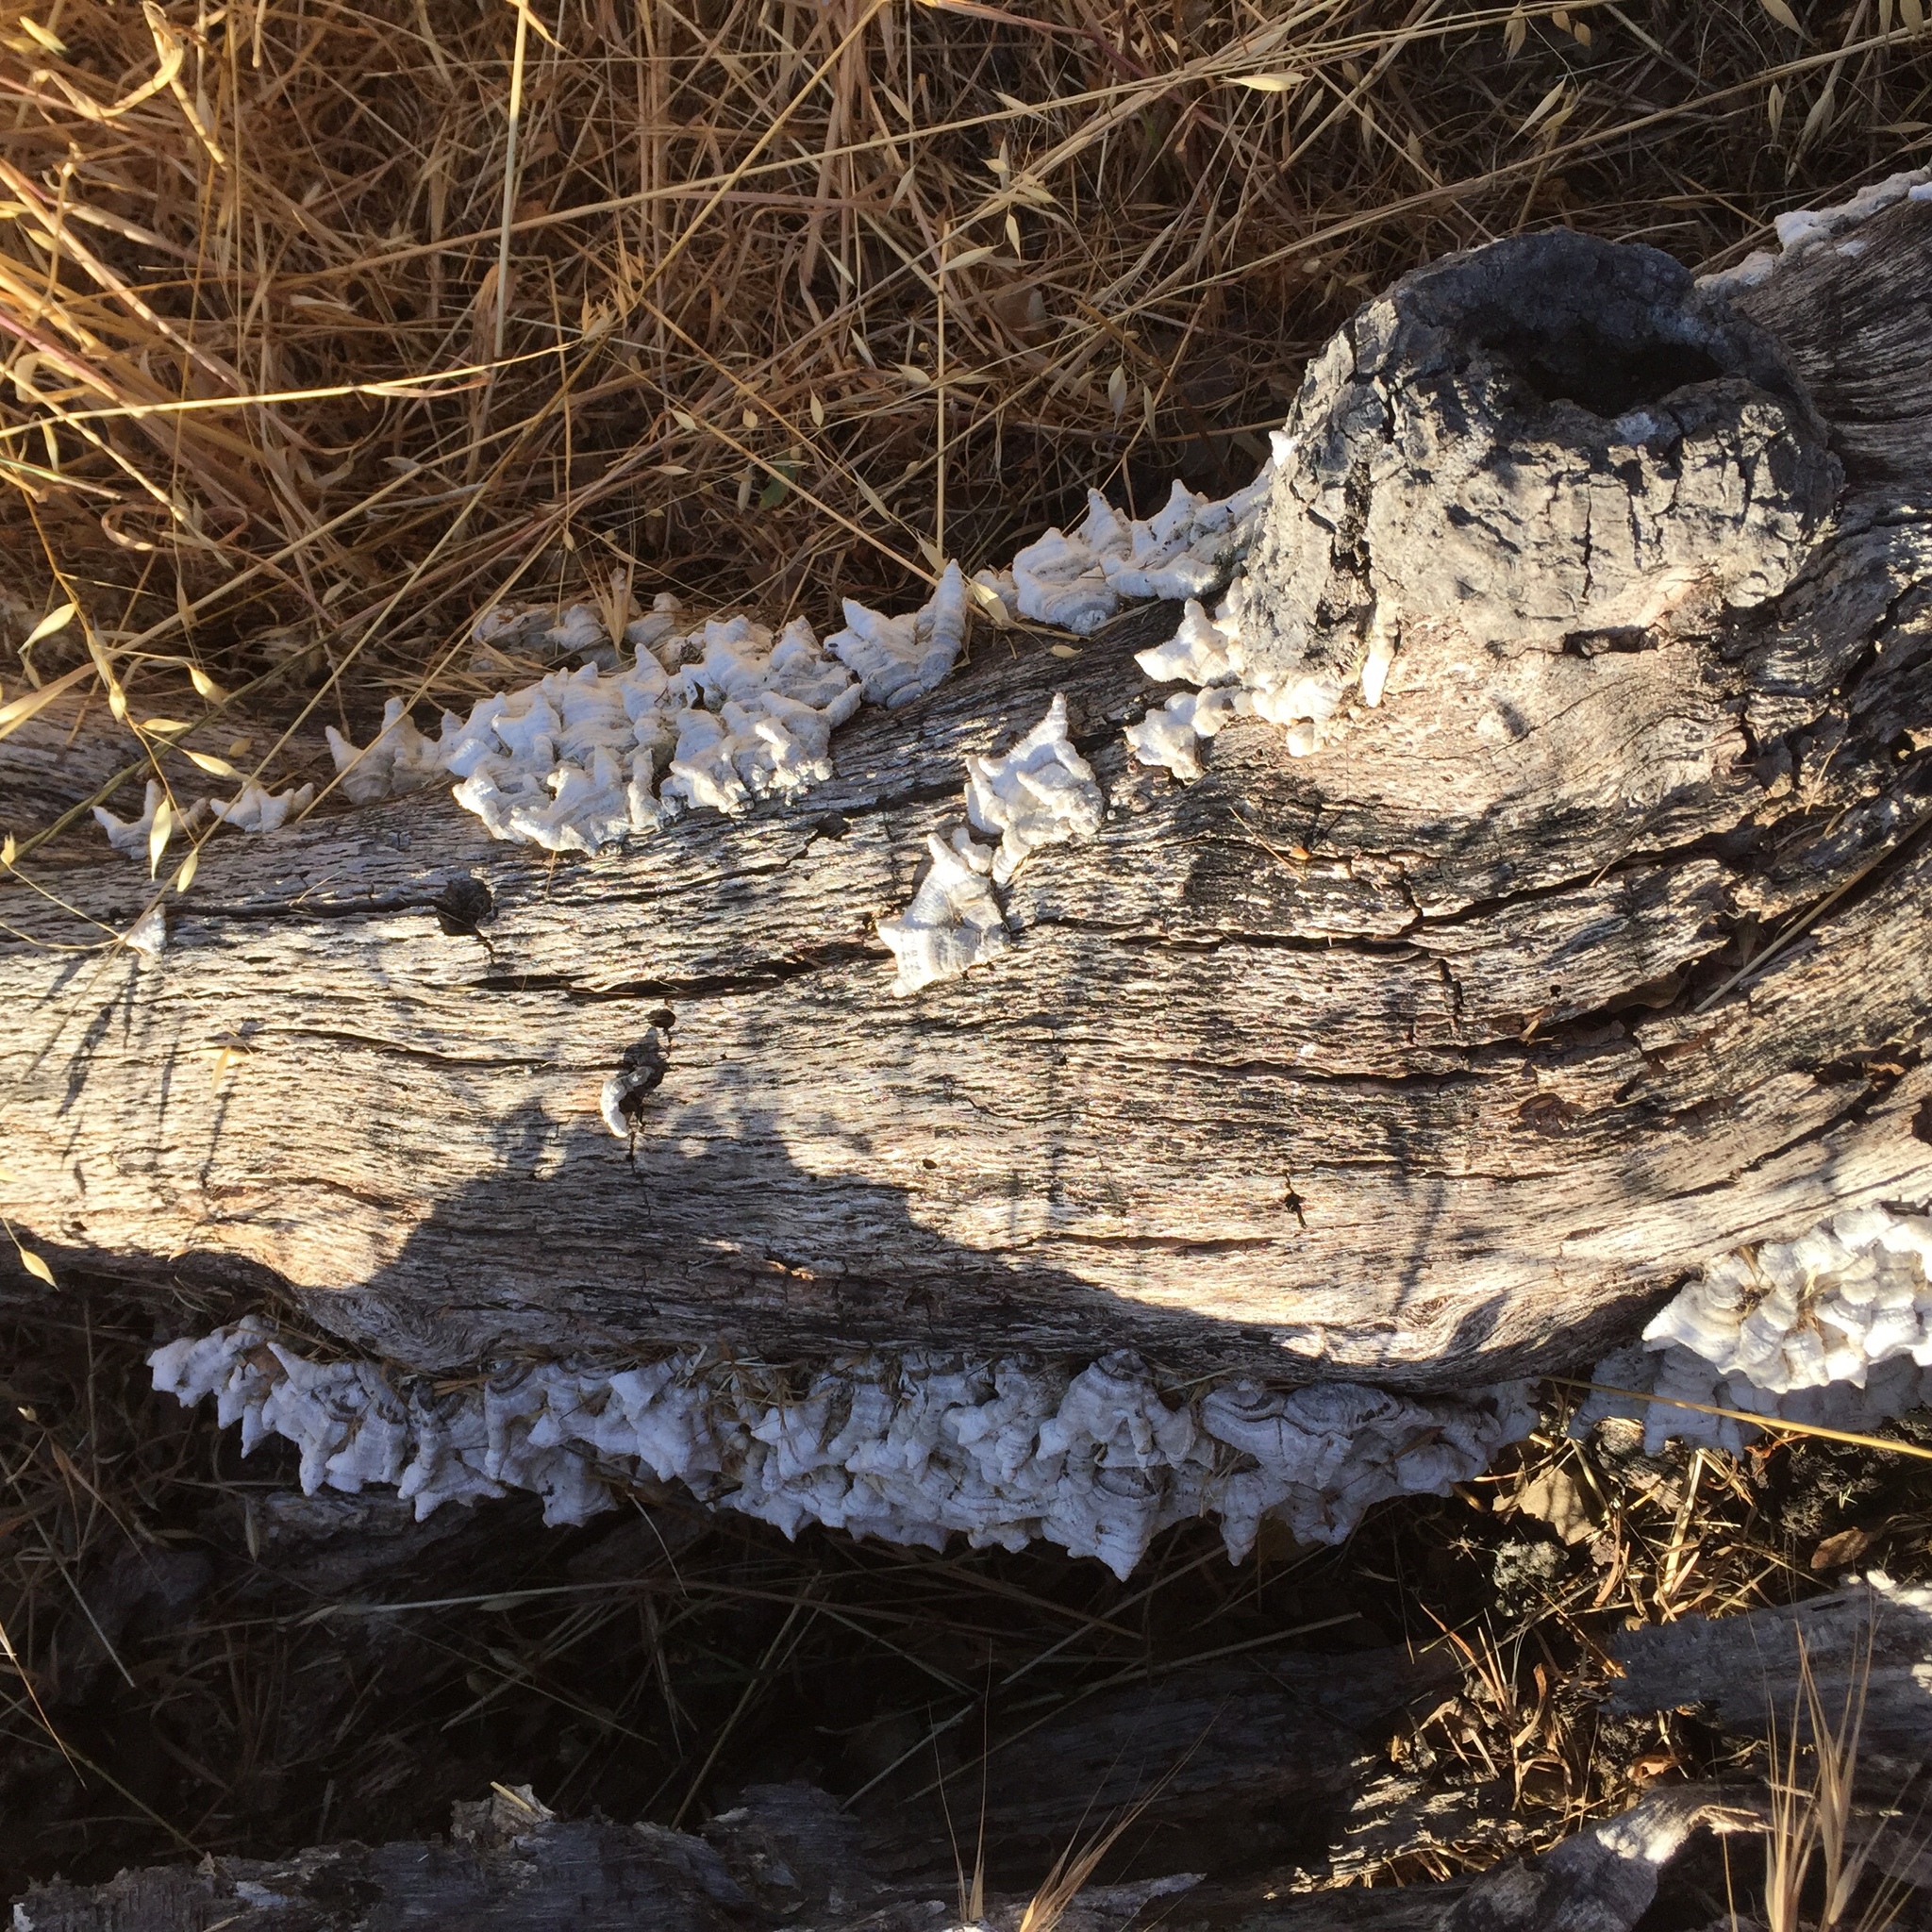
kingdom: Fungi
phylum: Basidiomycota
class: Agaricomycetes
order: Russulales
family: Stereaceae
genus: Stereum
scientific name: Stereum hirsutum
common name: Hairy curtain crust
